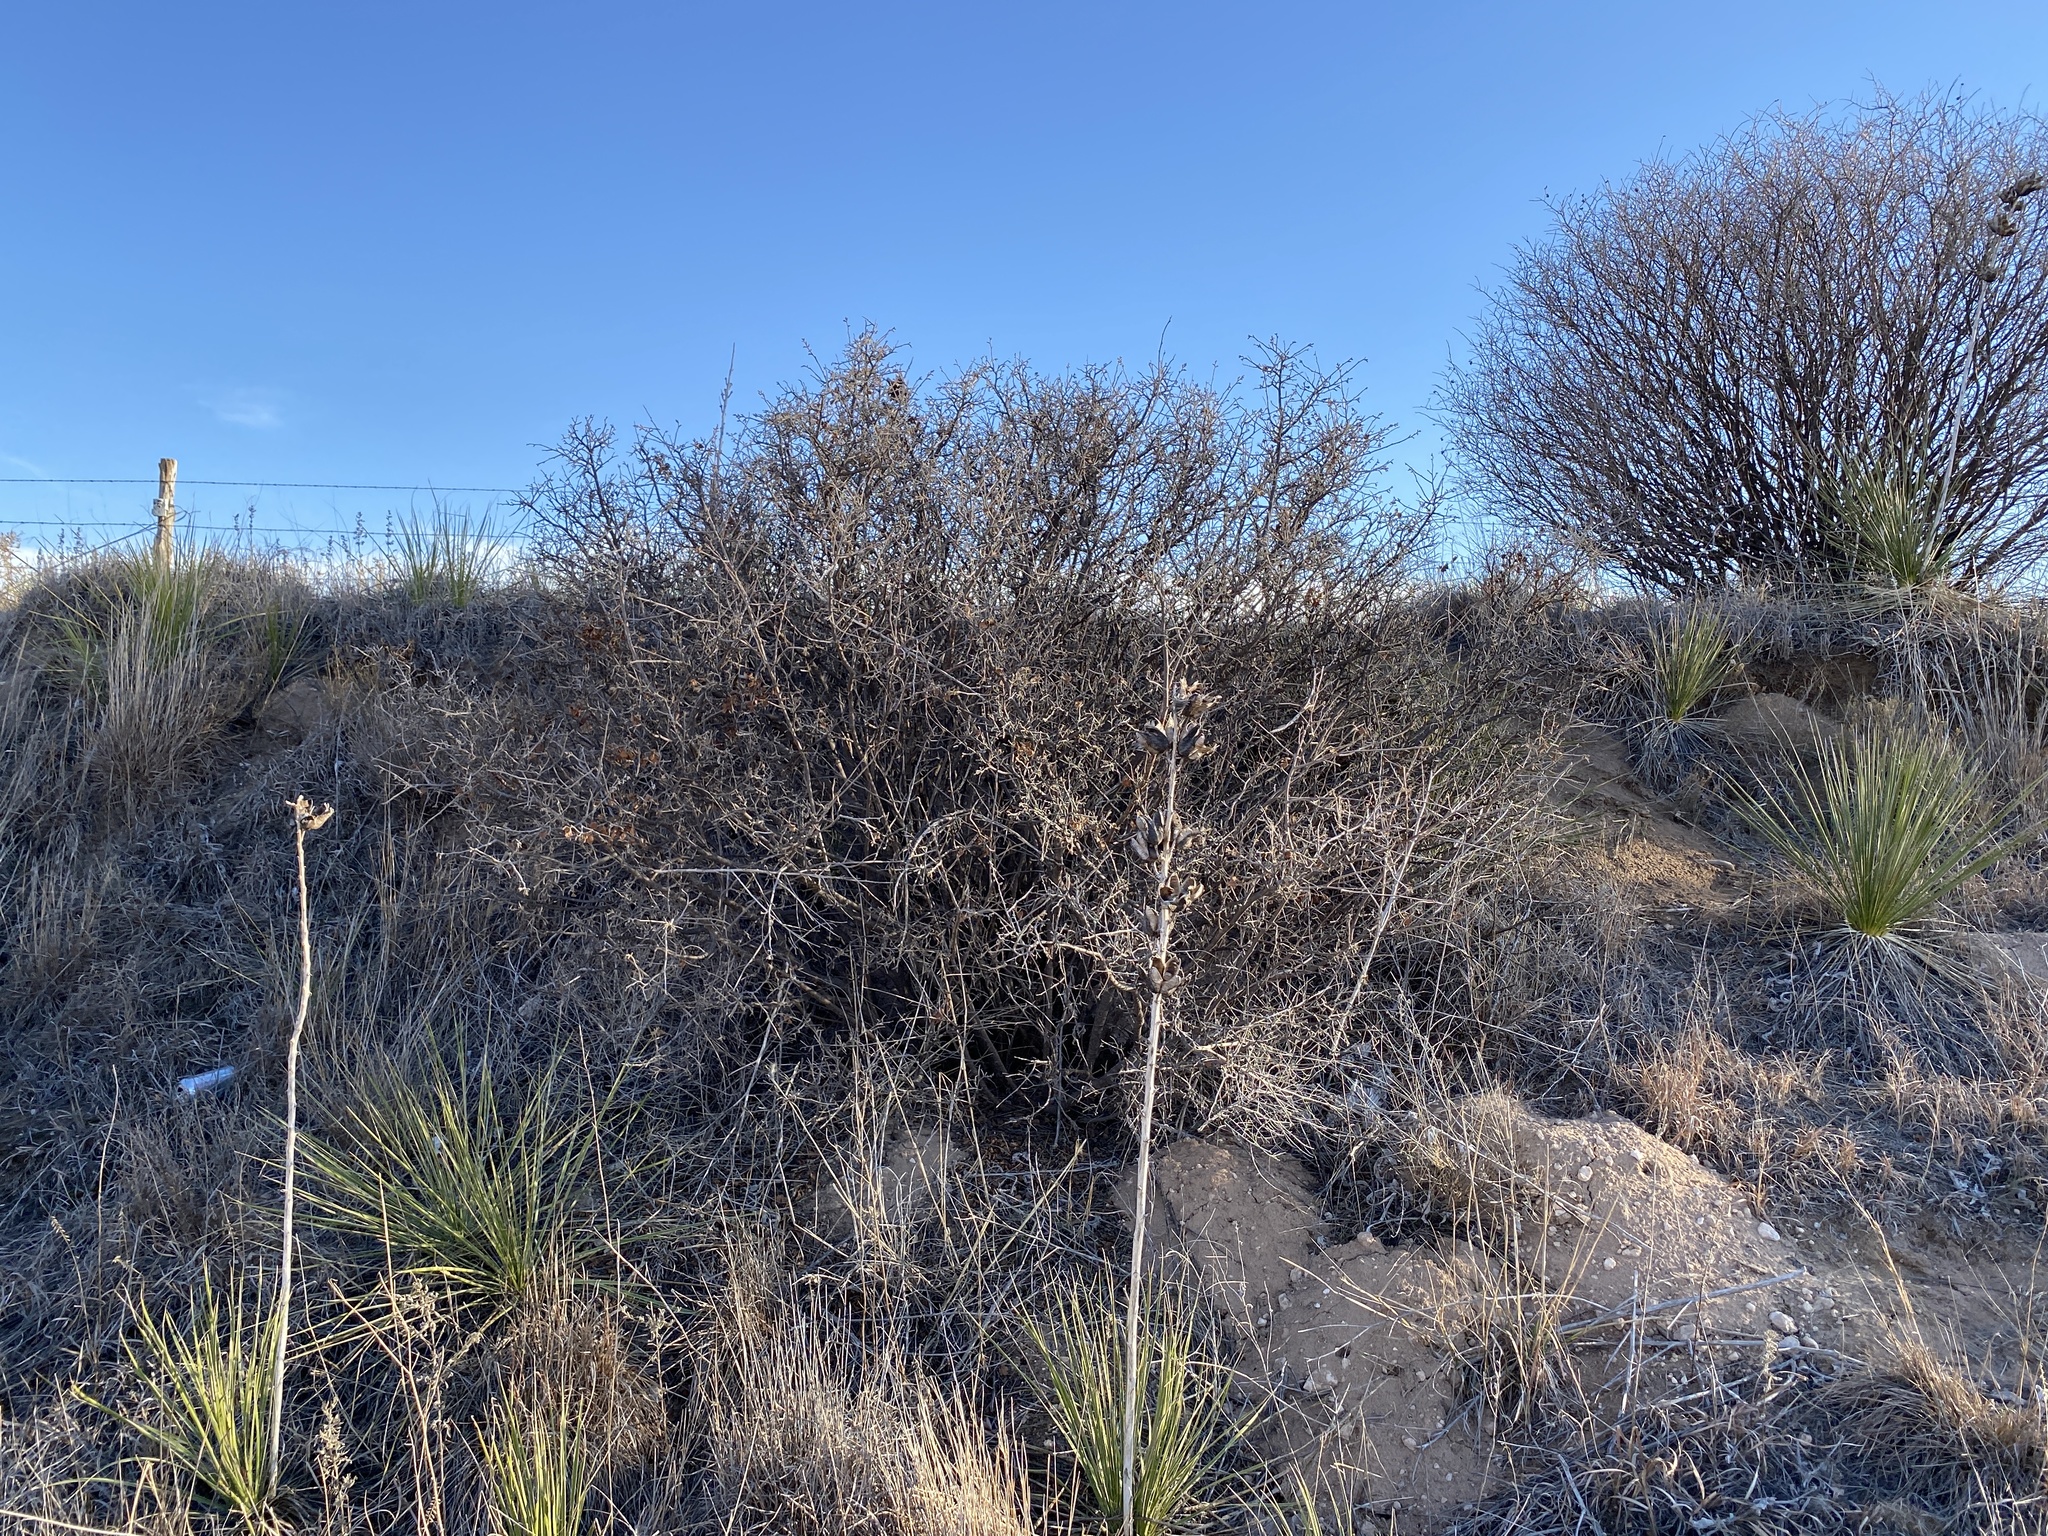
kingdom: Plantae
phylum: Tracheophyta
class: Magnoliopsida
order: Sapindales
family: Anacardiaceae
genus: Rhus
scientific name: Rhus aromatica
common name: Aromatic sumac
